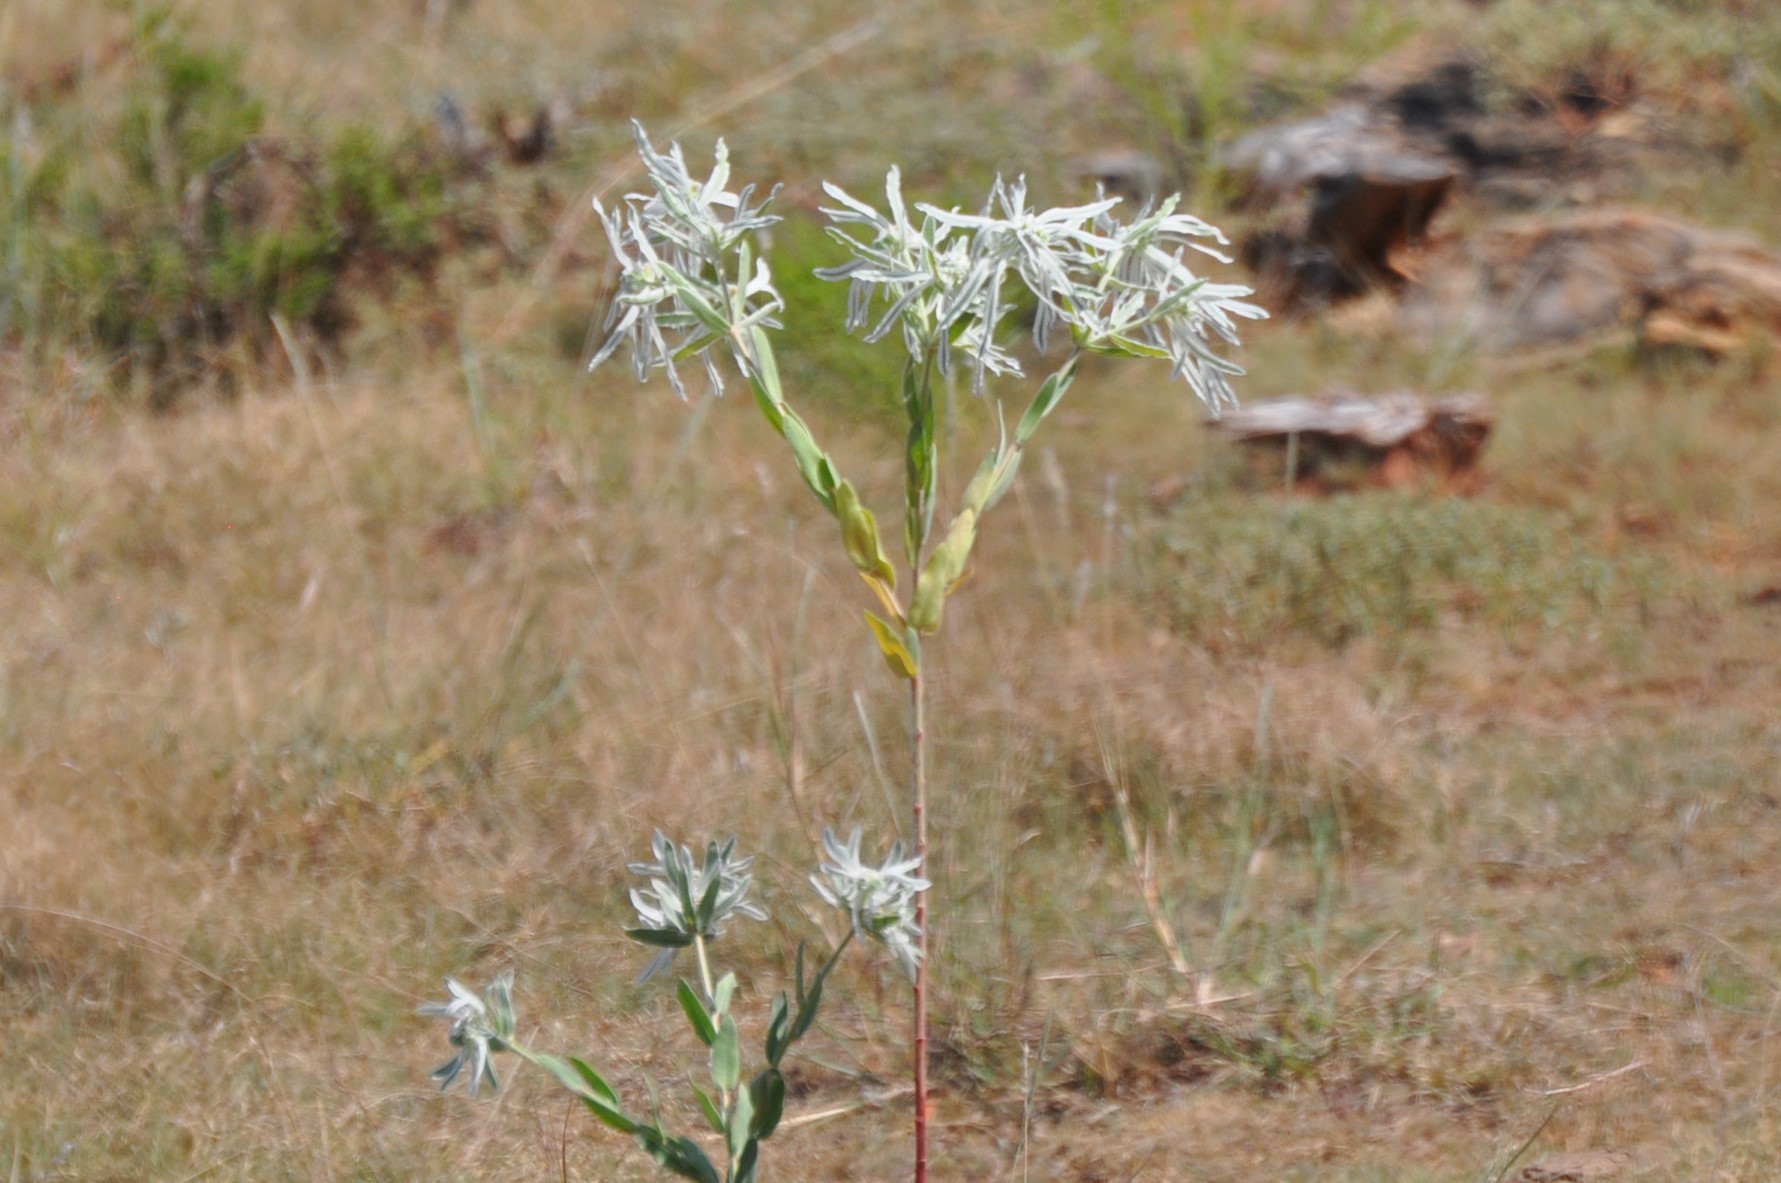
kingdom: Plantae
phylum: Tracheophyta
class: Magnoliopsida
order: Malpighiales
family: Euphorbiaceae
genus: Euphorbia
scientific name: Euphorbia bicolor
